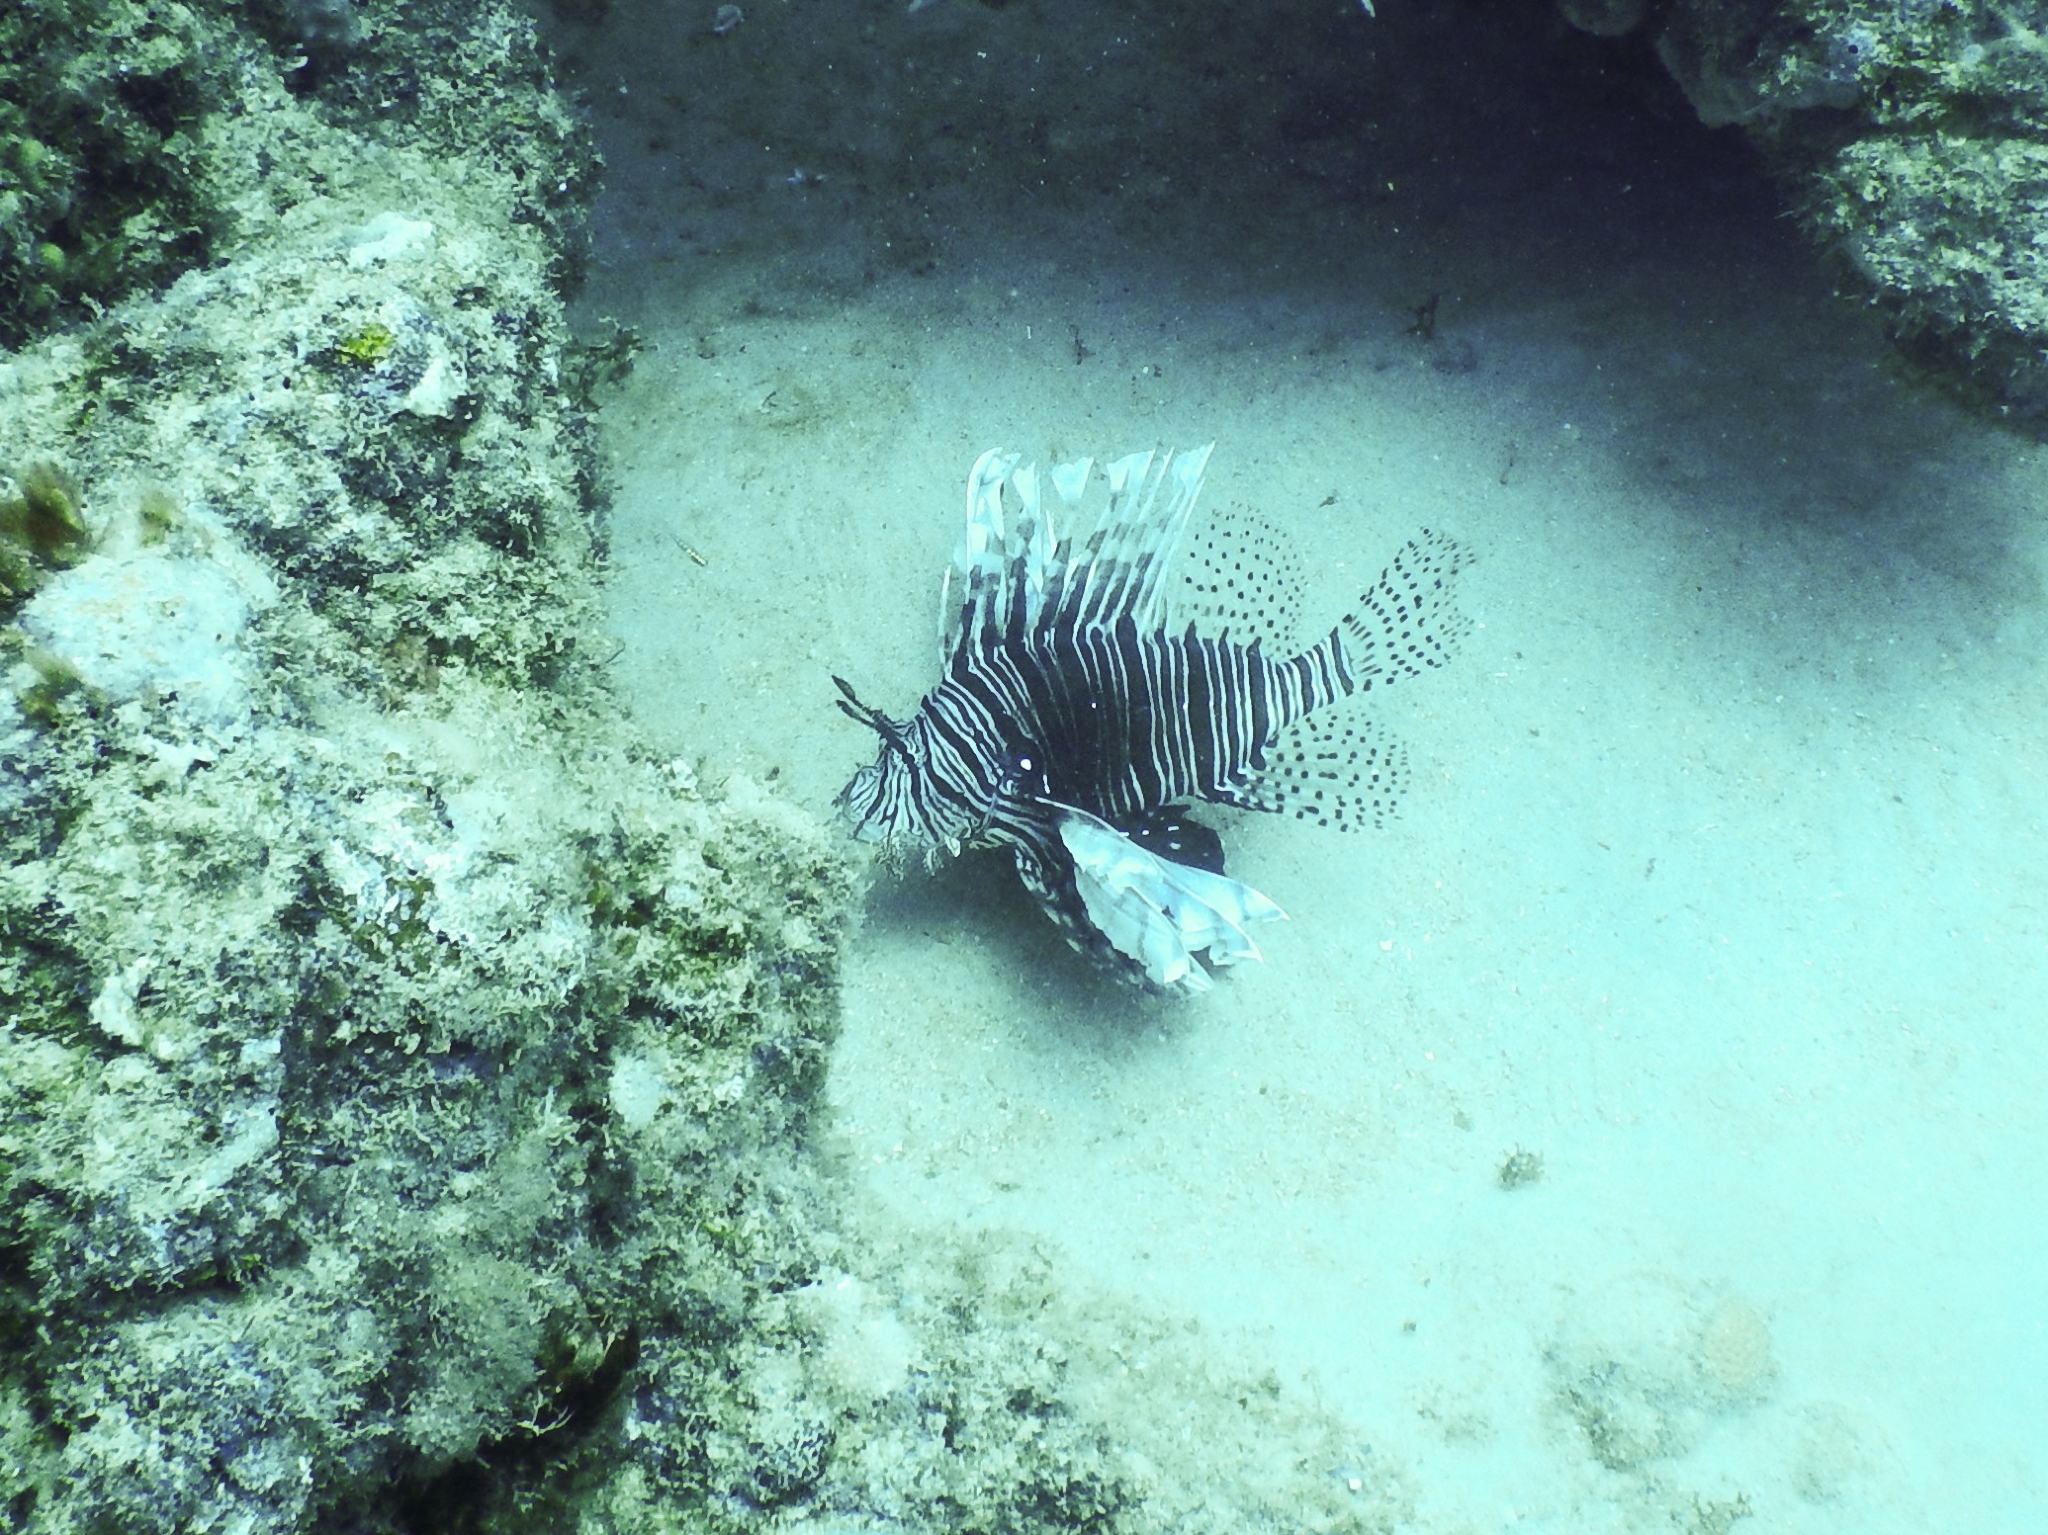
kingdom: Animalia
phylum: Chordata
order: Scorpaeniformes
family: Scorpaenidae
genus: Pterois
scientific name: Pterois volitans
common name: Lionfish
